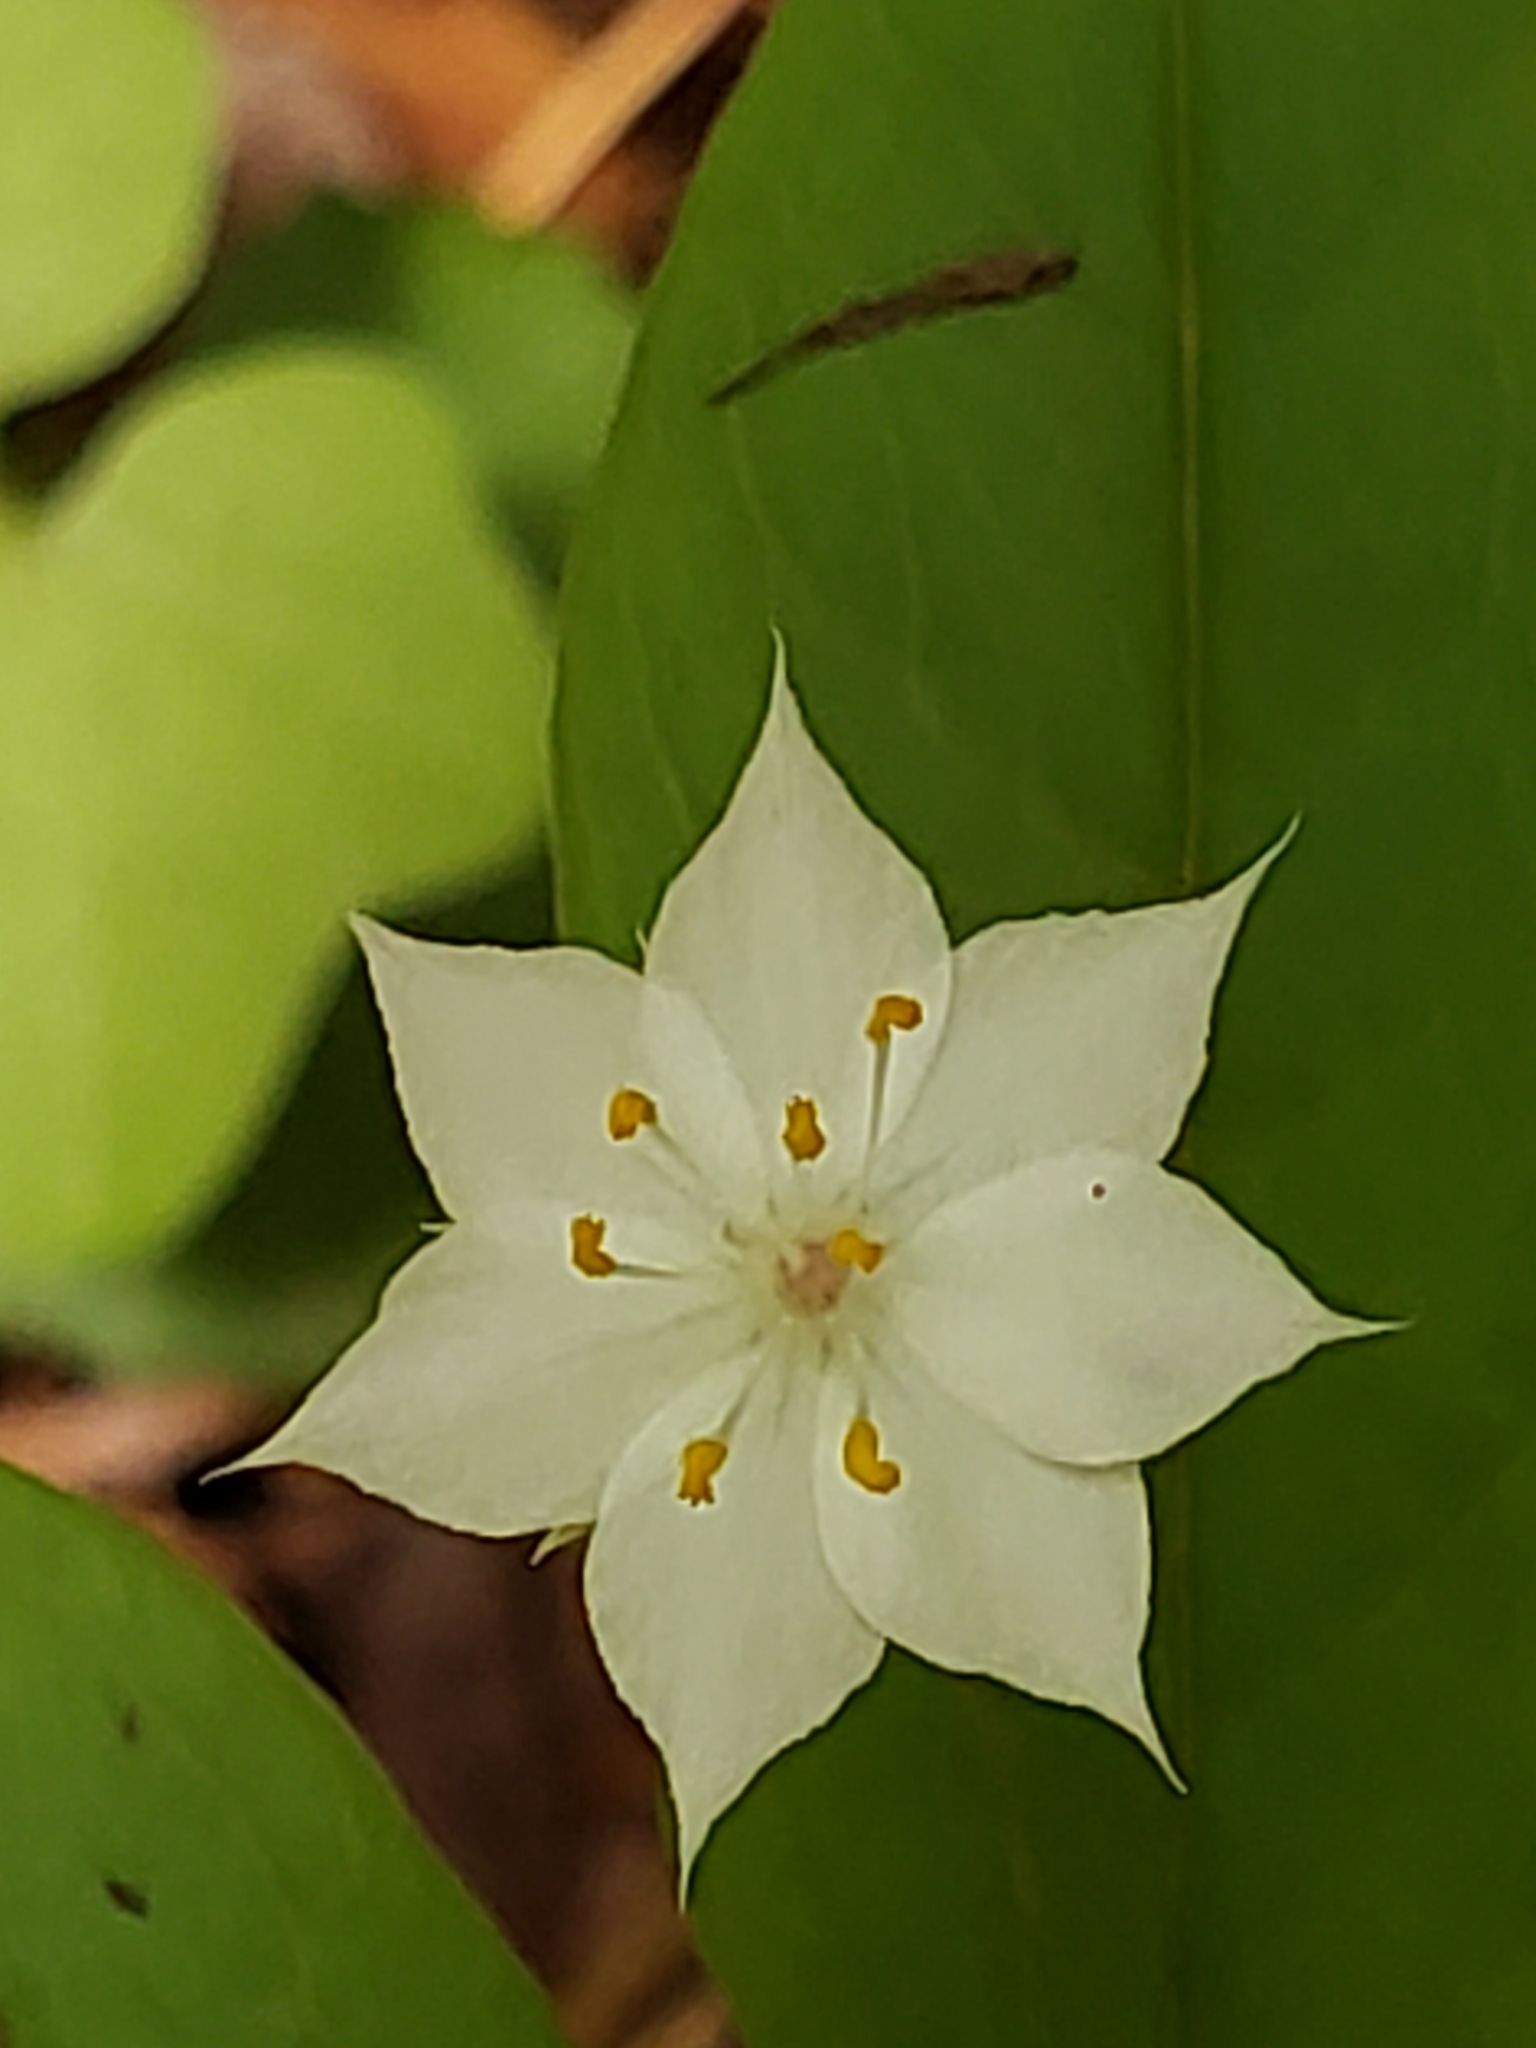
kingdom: Plantae
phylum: Tracheophyta
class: Magnoliopsida
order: Ericales
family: Primulaceae
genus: Lysimachia
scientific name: Lysimachia latifolia
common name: Pacific starflower
